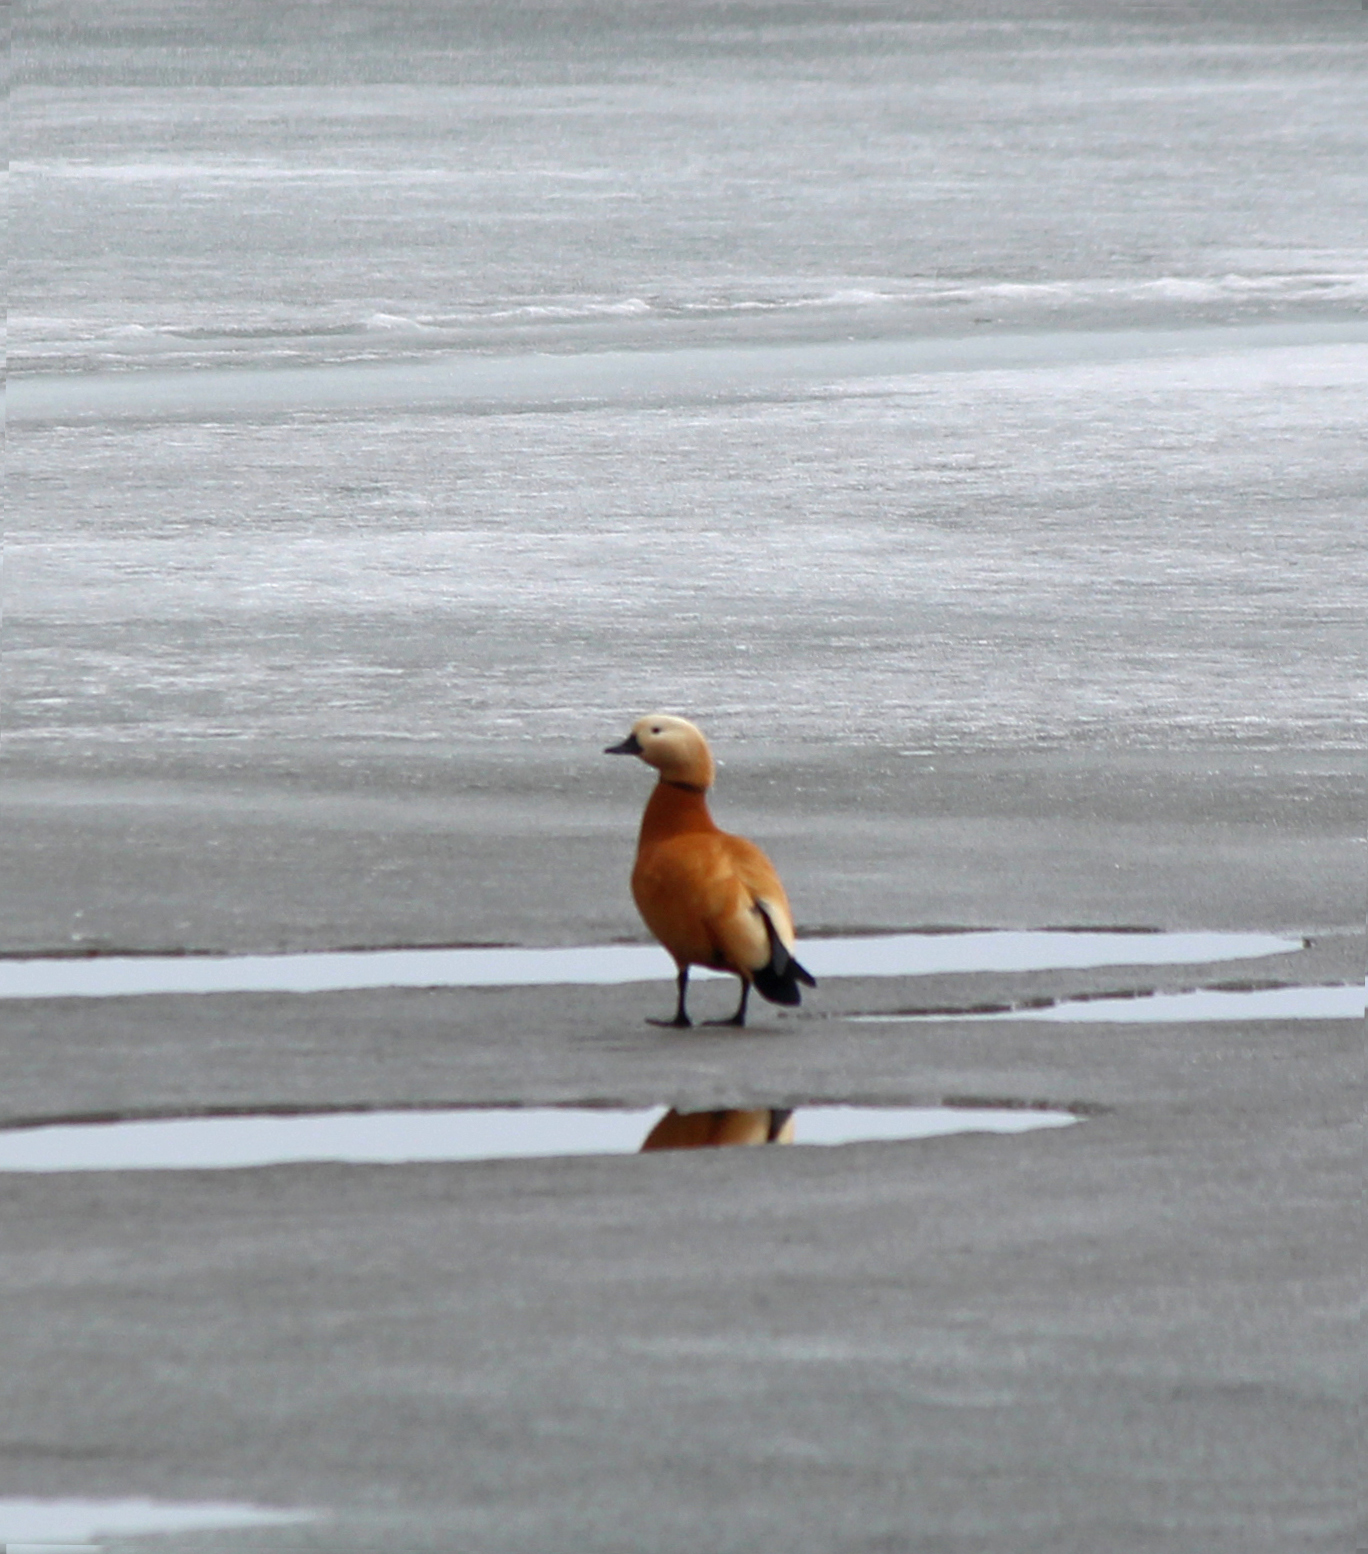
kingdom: Animalia
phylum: Chordata
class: Aves
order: Anseriformes
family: Anatidae
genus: Tadorna
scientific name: Tadorna ferruginea
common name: Ruddy shelduck
